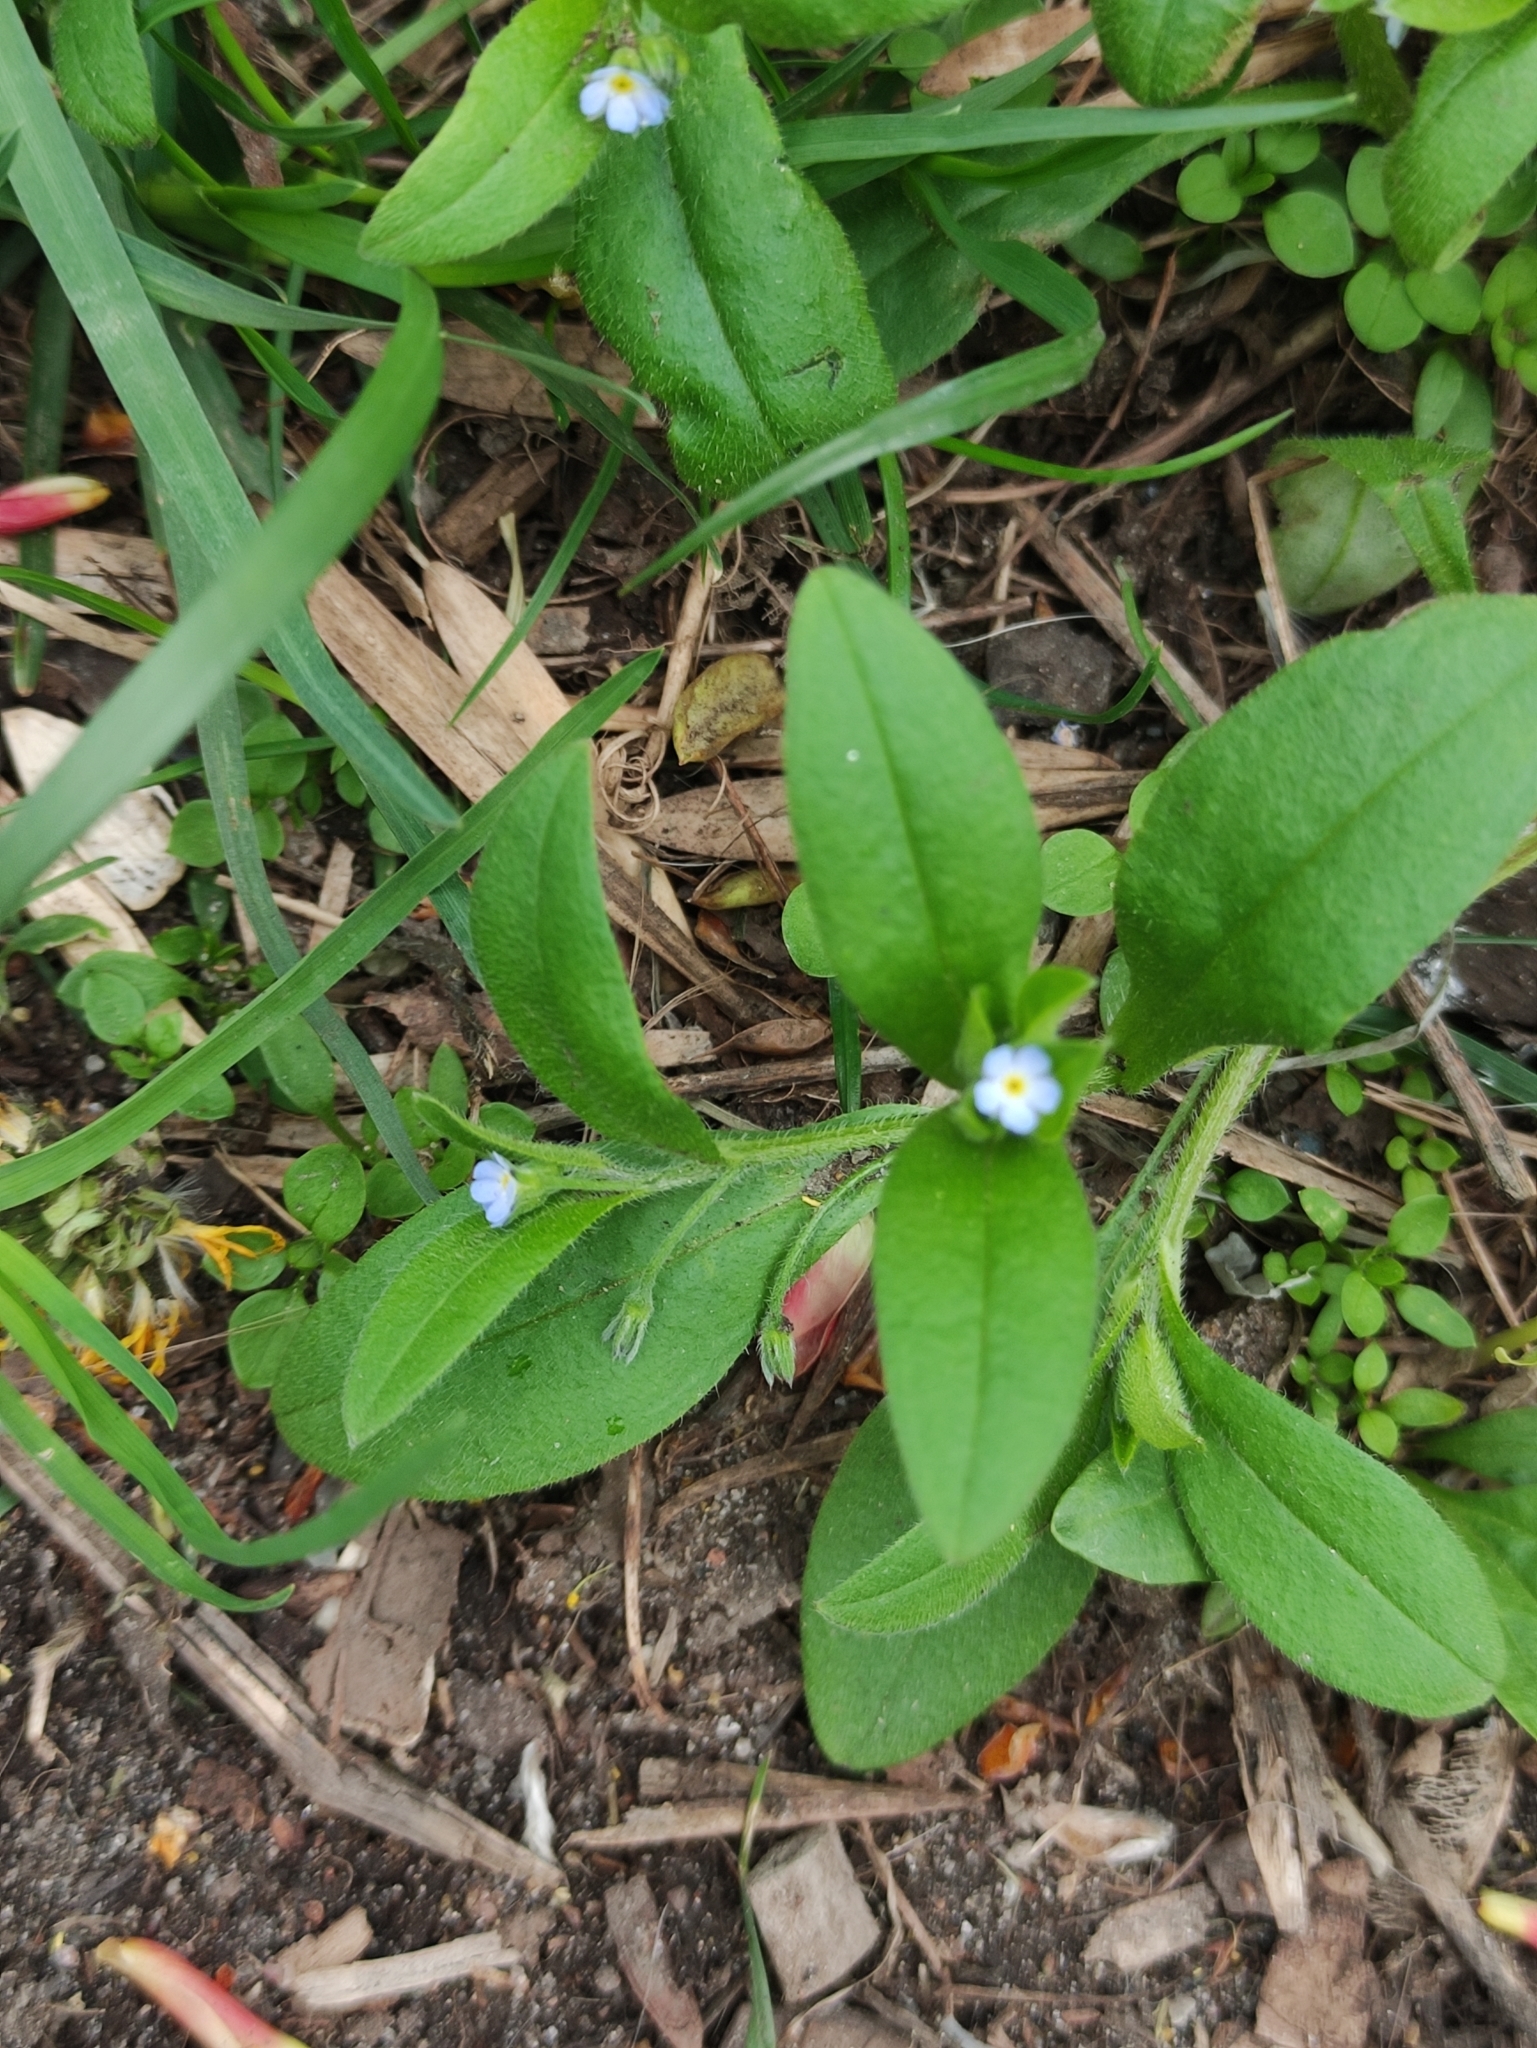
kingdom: Plantae
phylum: Tracheophyta
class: Magnoliopsida
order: Boraginales
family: Boraginaceae
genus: Myosotis
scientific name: Myosotis sparsiflora
